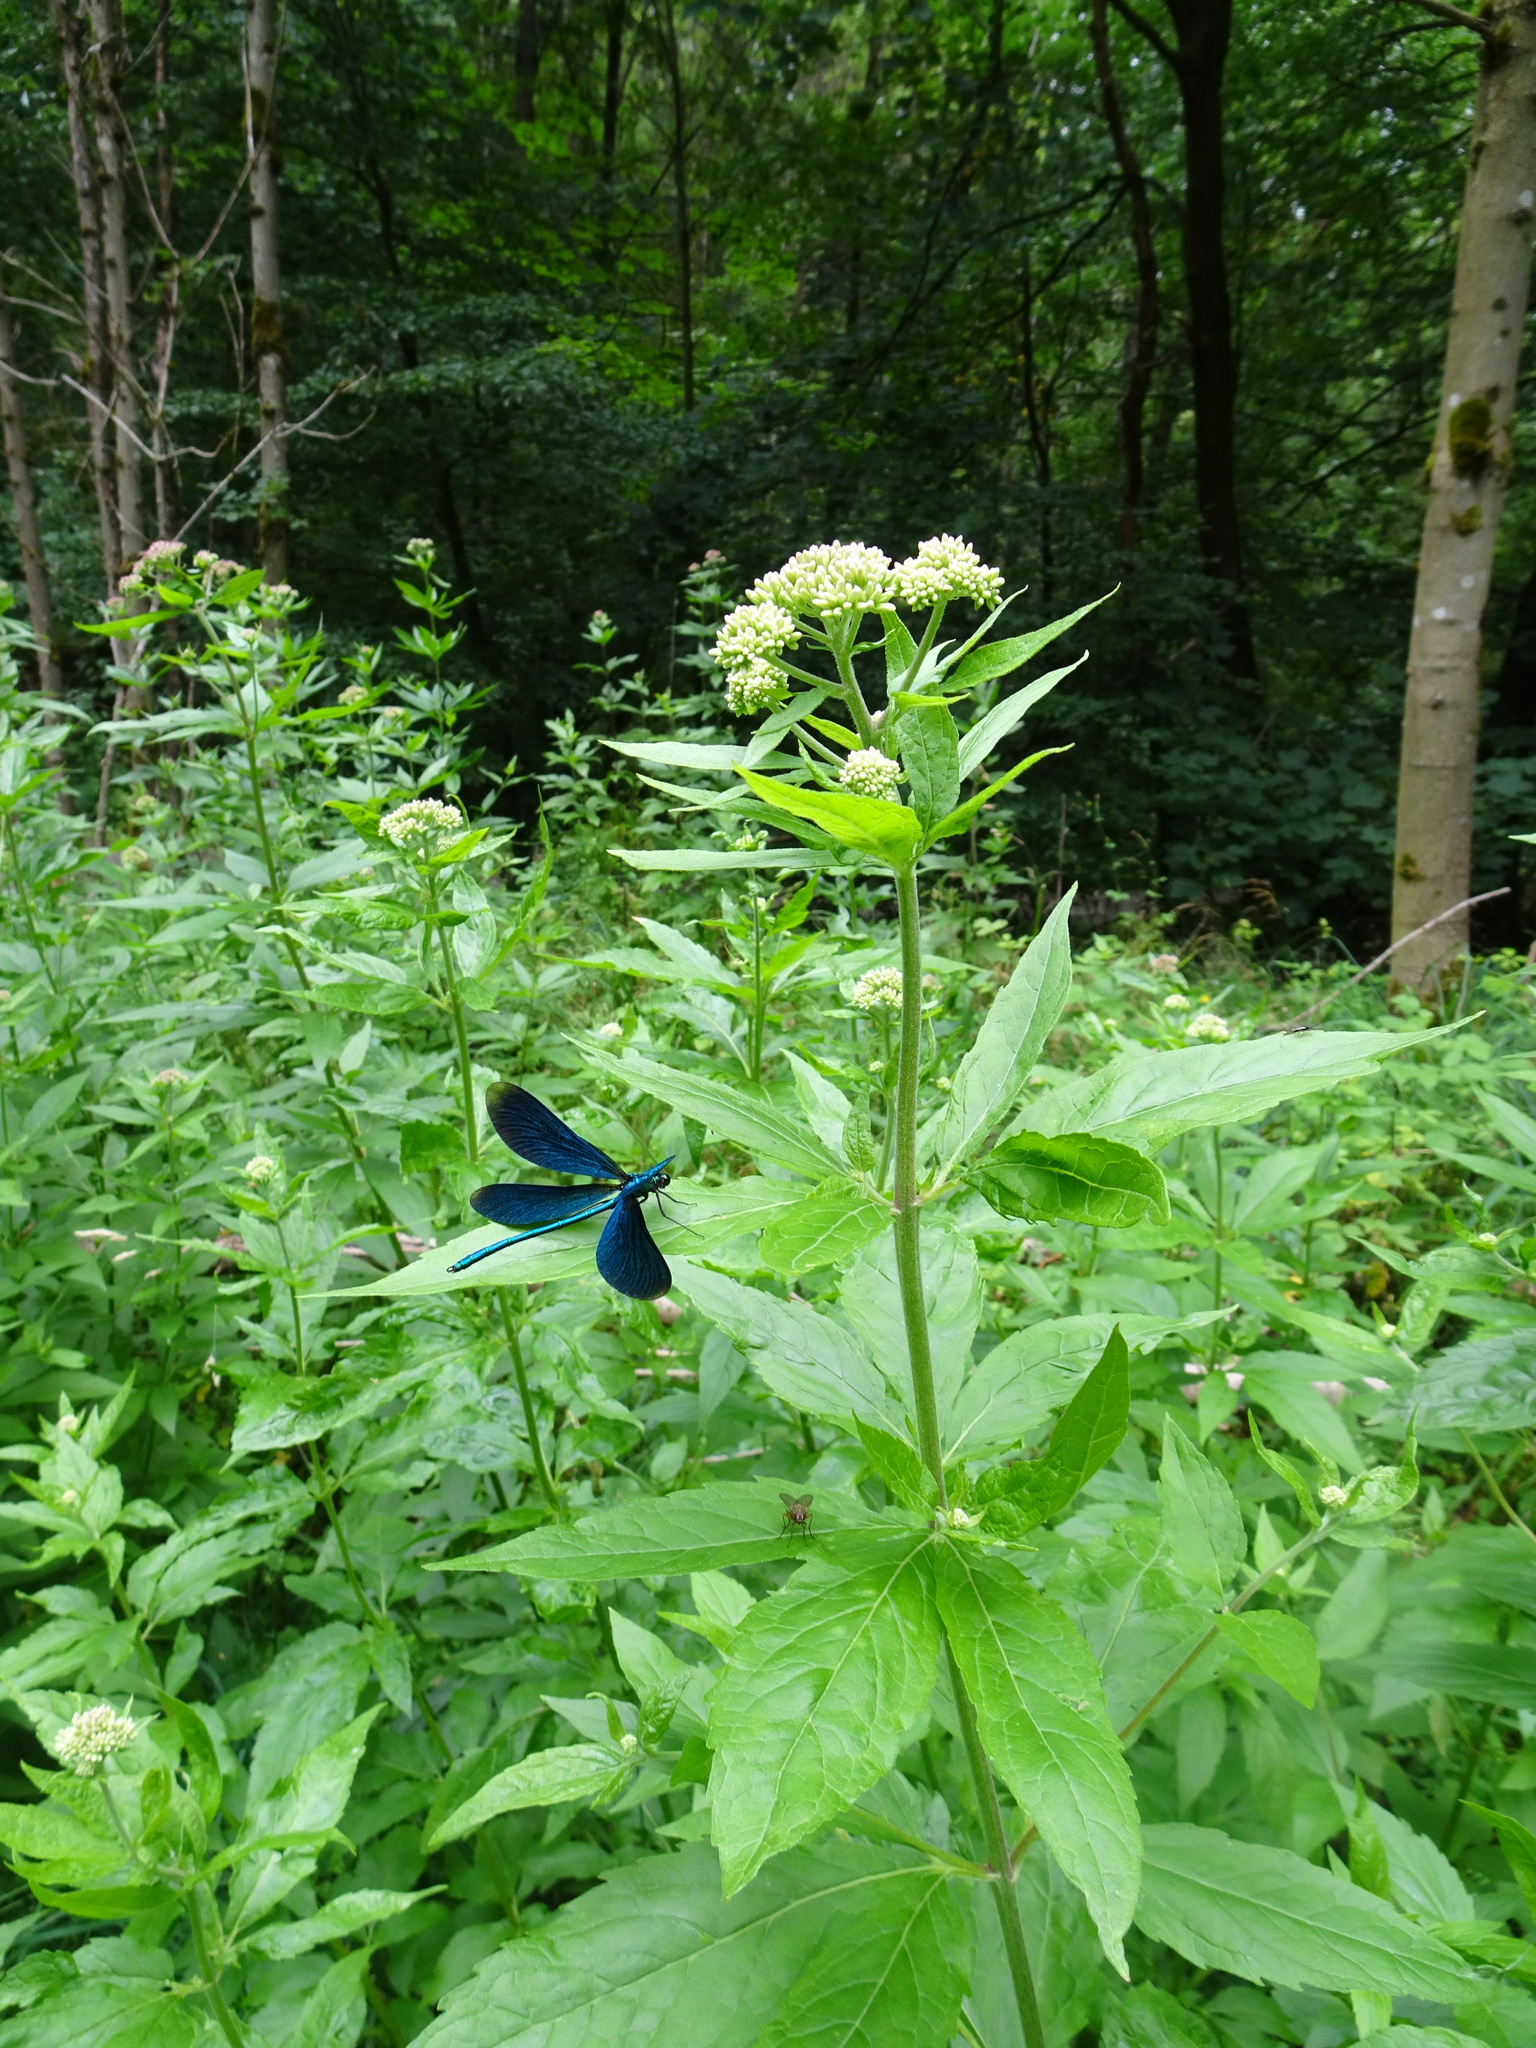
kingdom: Plantae
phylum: Tracheophyta
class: Magnoliopsida
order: Asterales
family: Asteraceae
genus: Eupatorium
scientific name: Eupatorium cannabinum
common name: Hemp-agrimony
